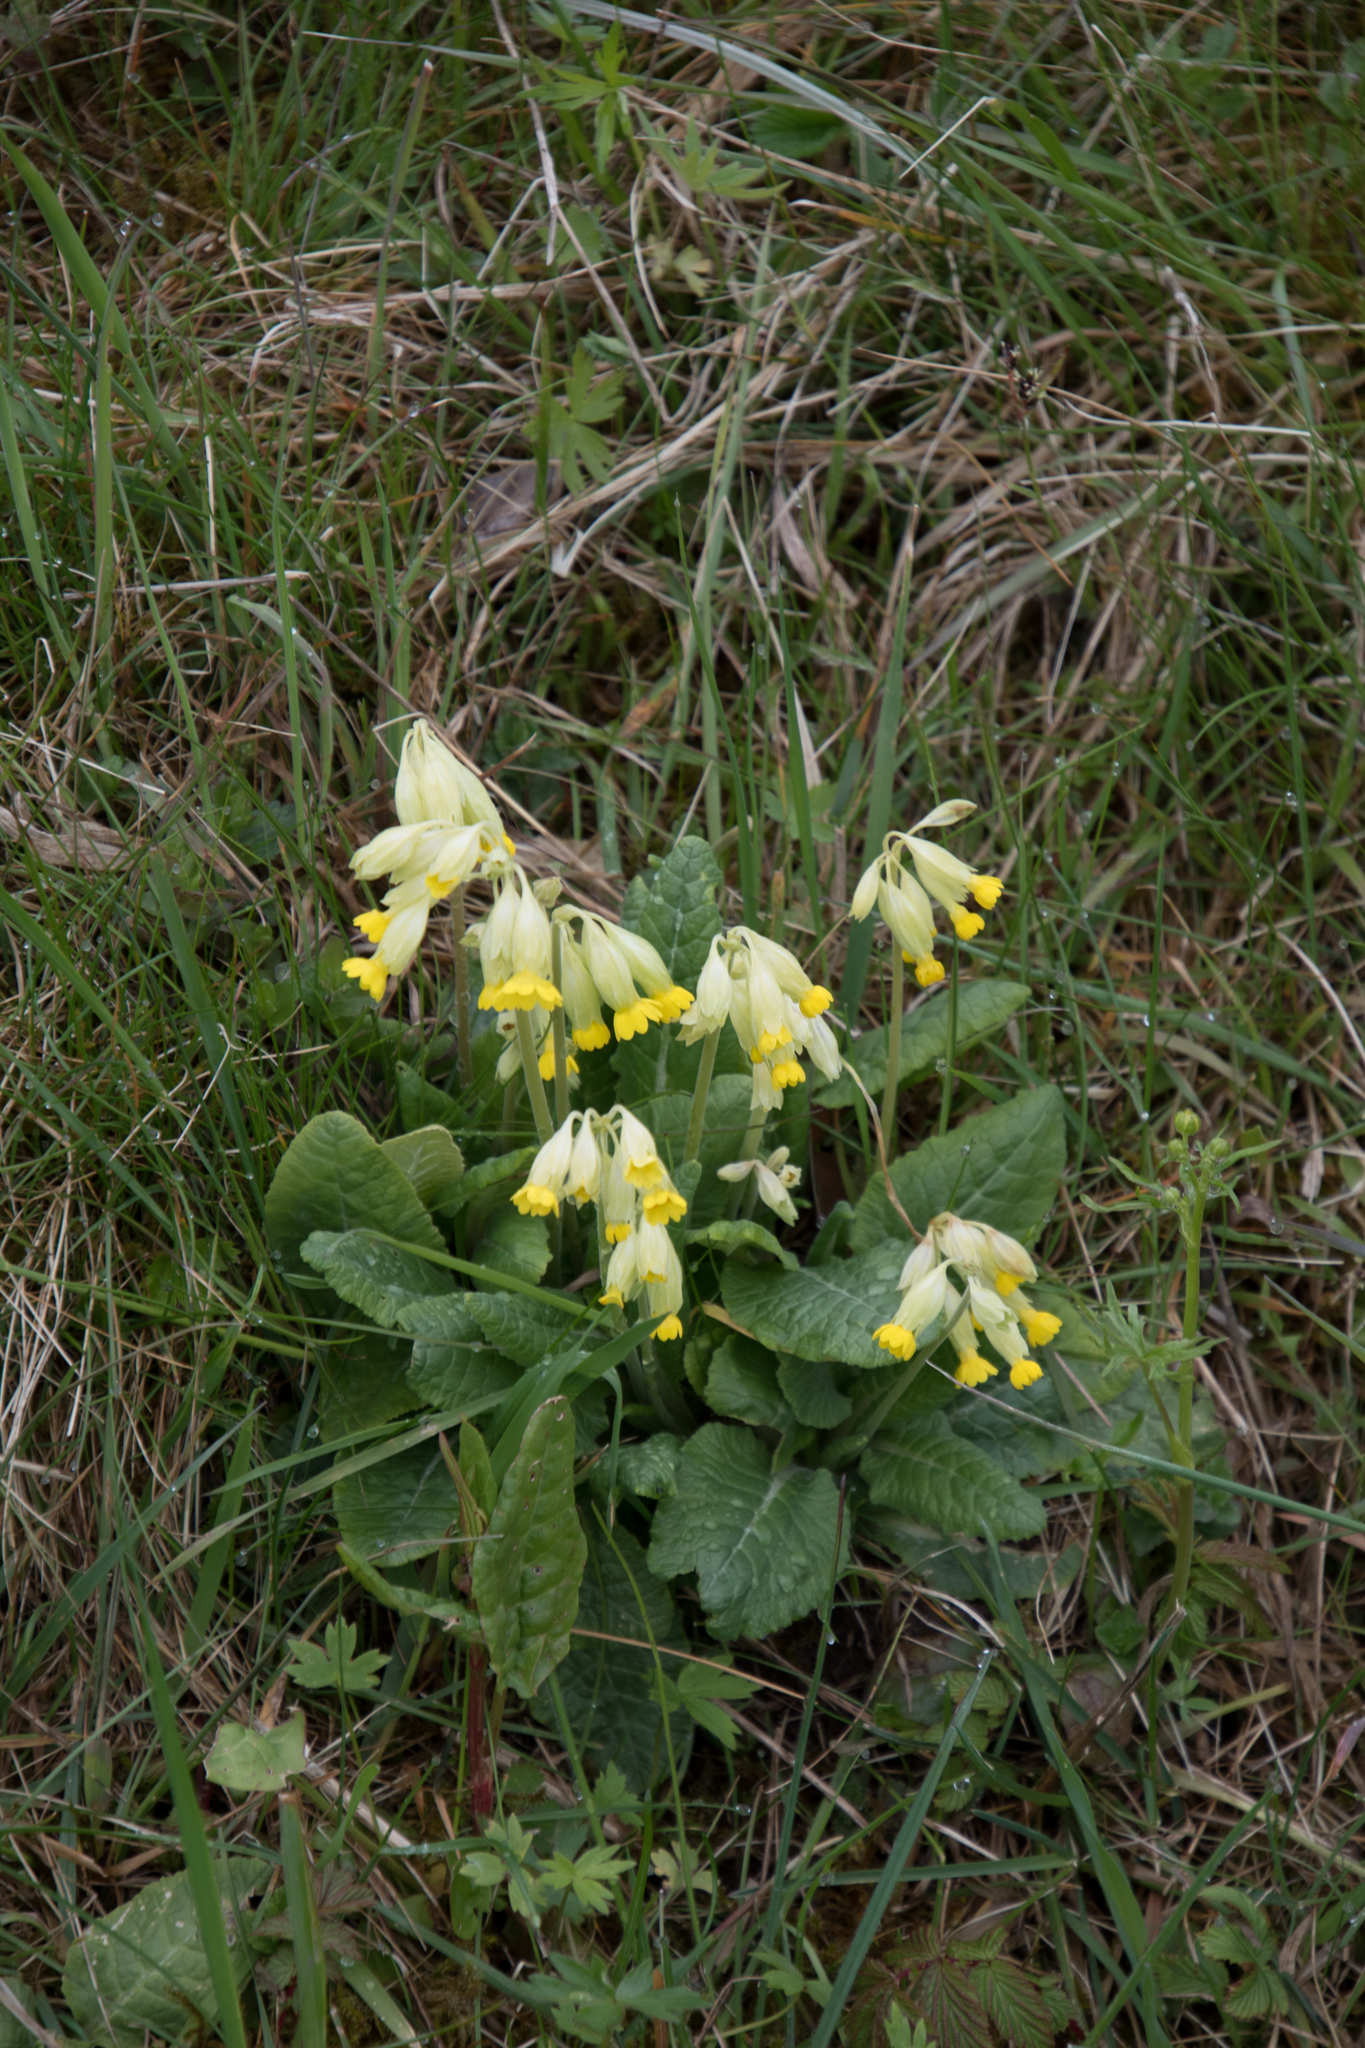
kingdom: Plantae
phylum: Tracheophyta
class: Magnoliopsida
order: Ericales
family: Primulaceae
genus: Primula
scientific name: Primula veris
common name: Cowslip
